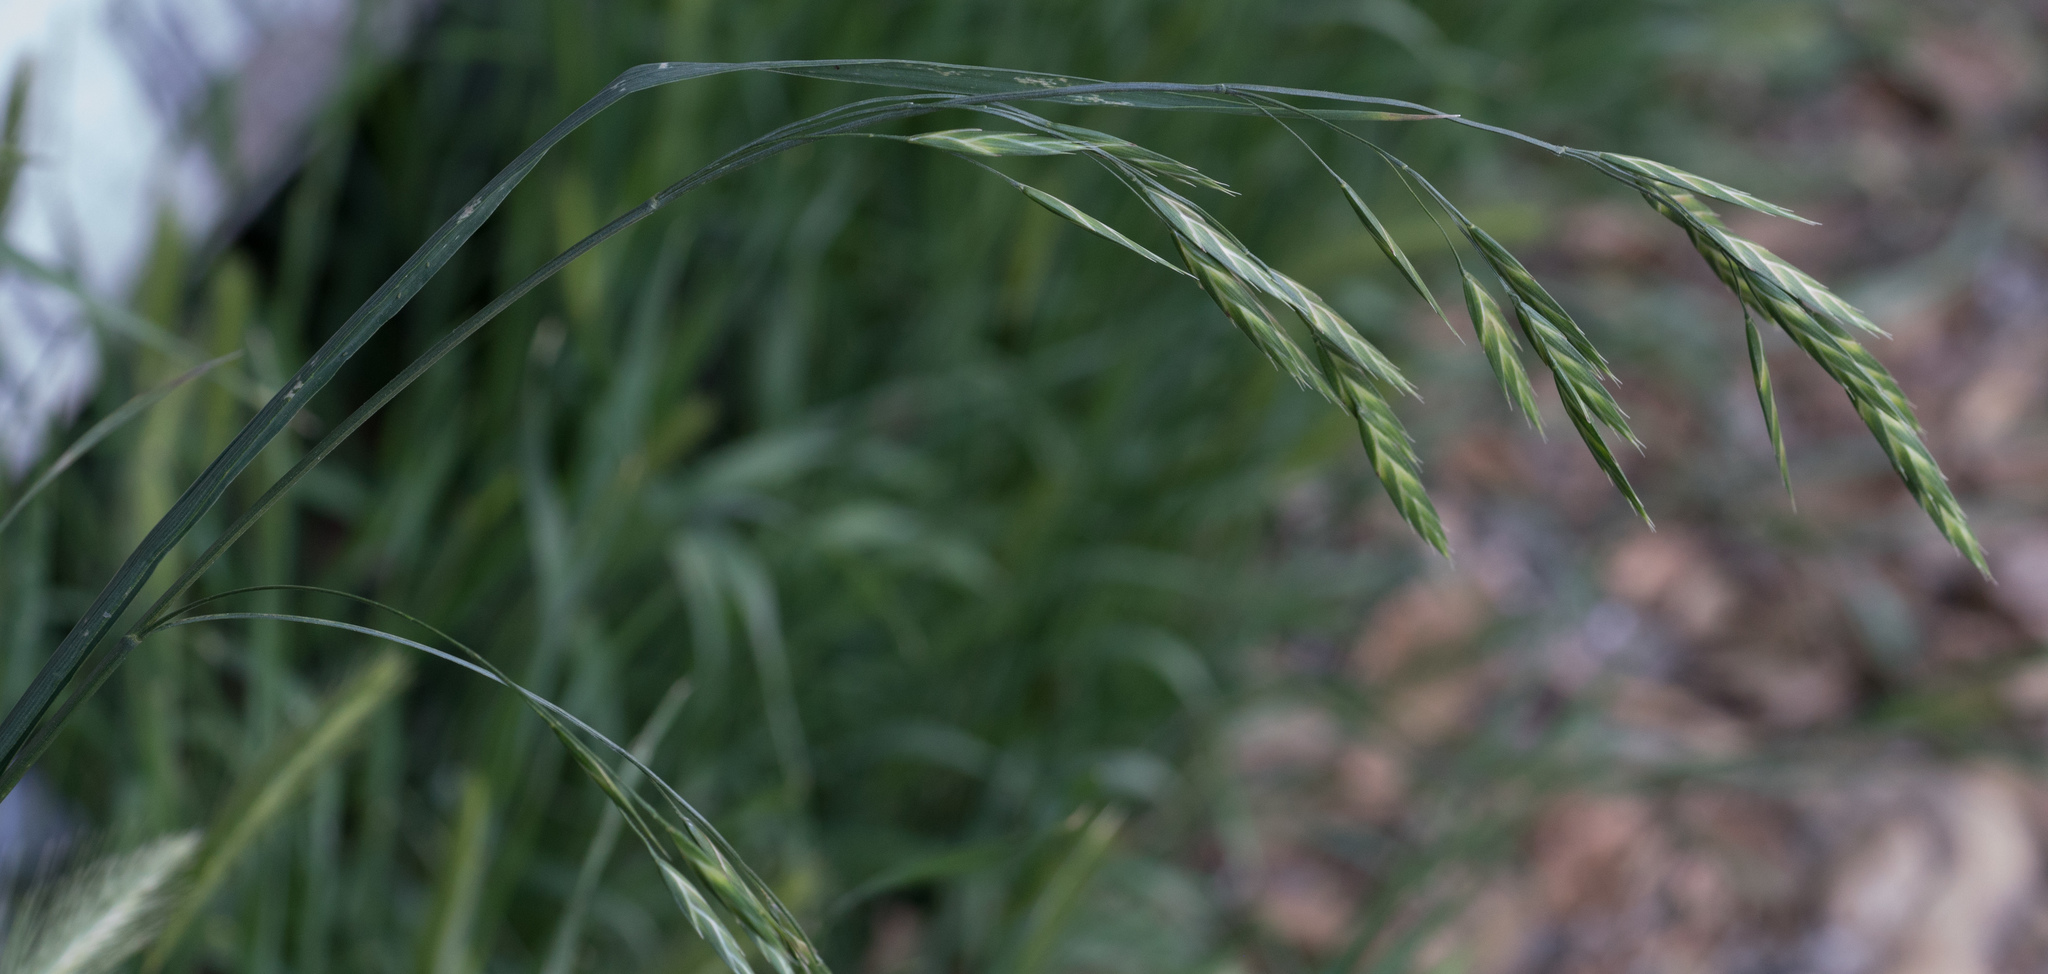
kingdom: Plantae
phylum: Tracheophyta
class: Liliopsida
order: Poales
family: Poaceae
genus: Bromus
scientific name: Bromus catharticus
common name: Rescuegrass
